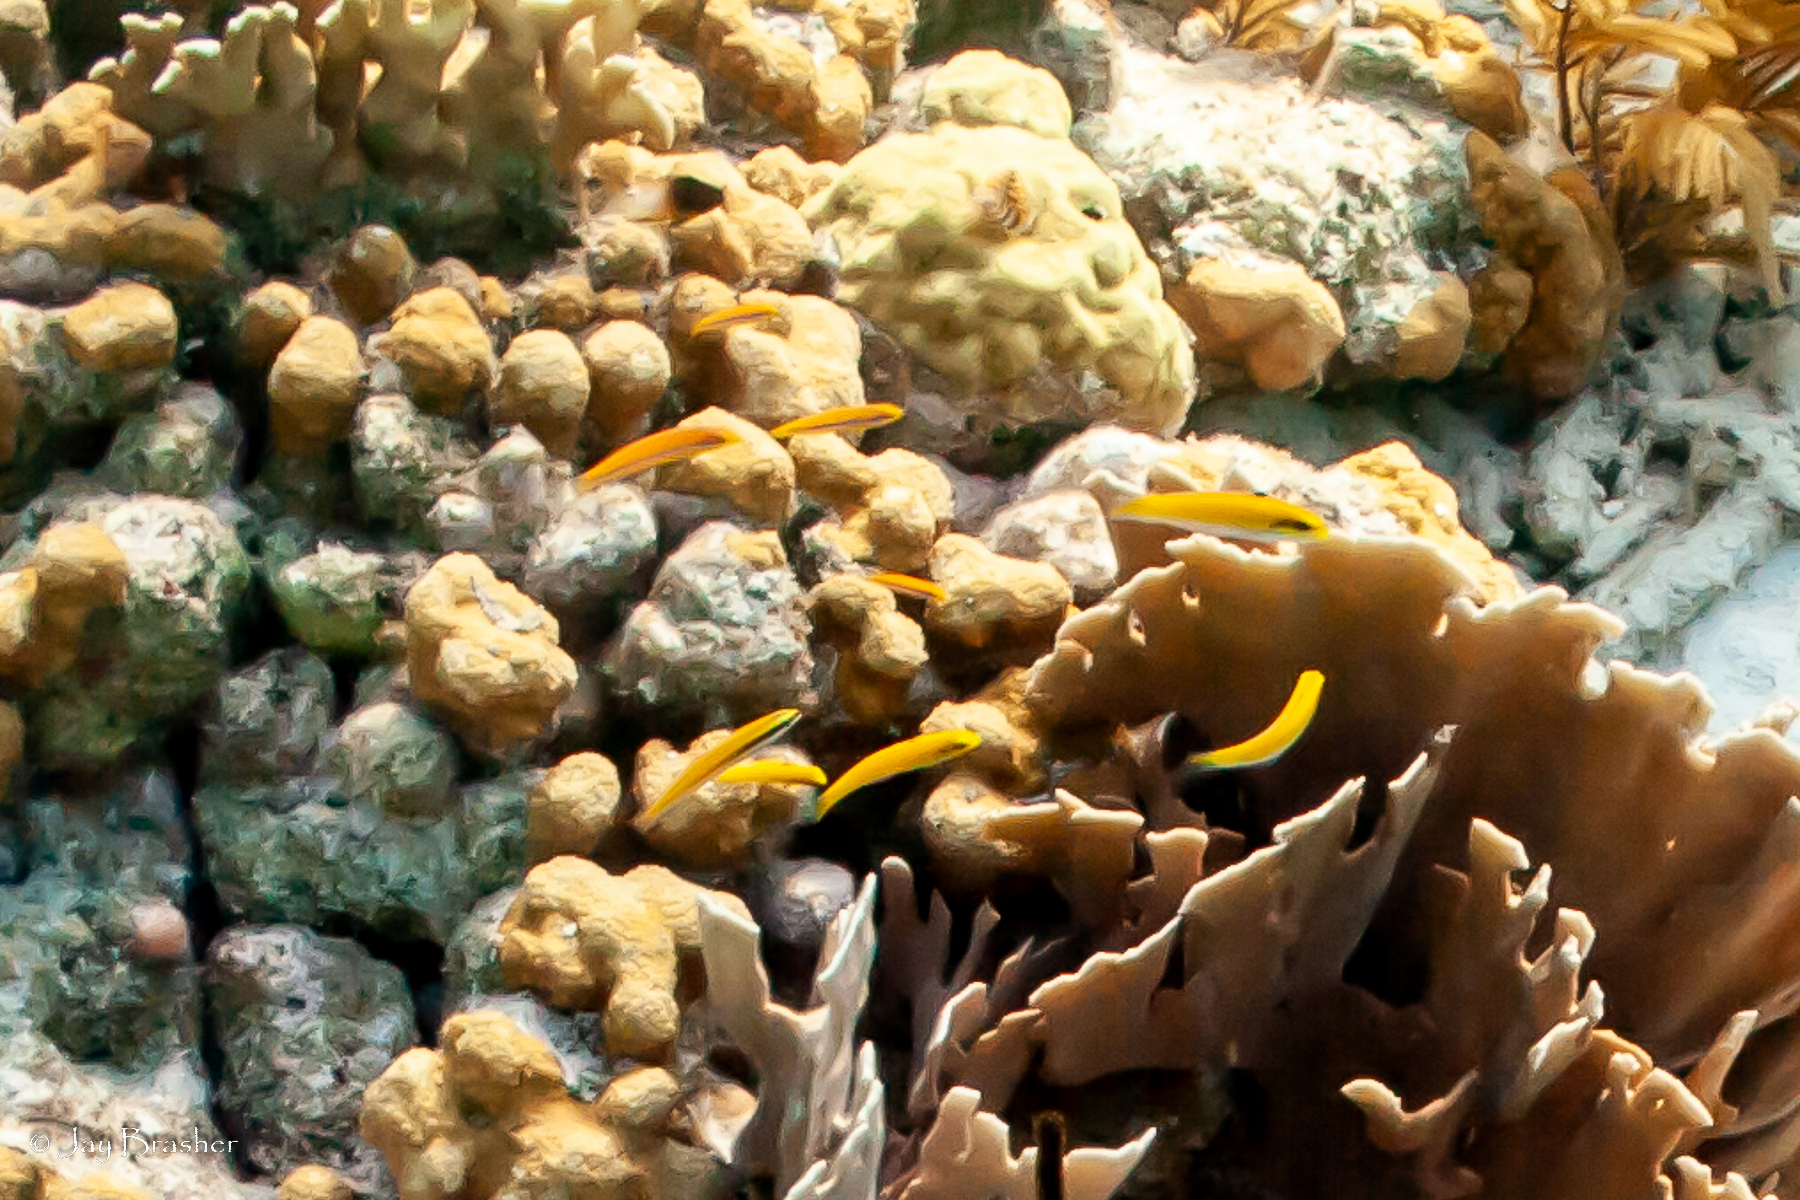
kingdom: Animalia
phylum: Chordata
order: Perciformes
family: Labridae
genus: Halichoeres
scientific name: Halichoeres pictus
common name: Rainbow wrasse
